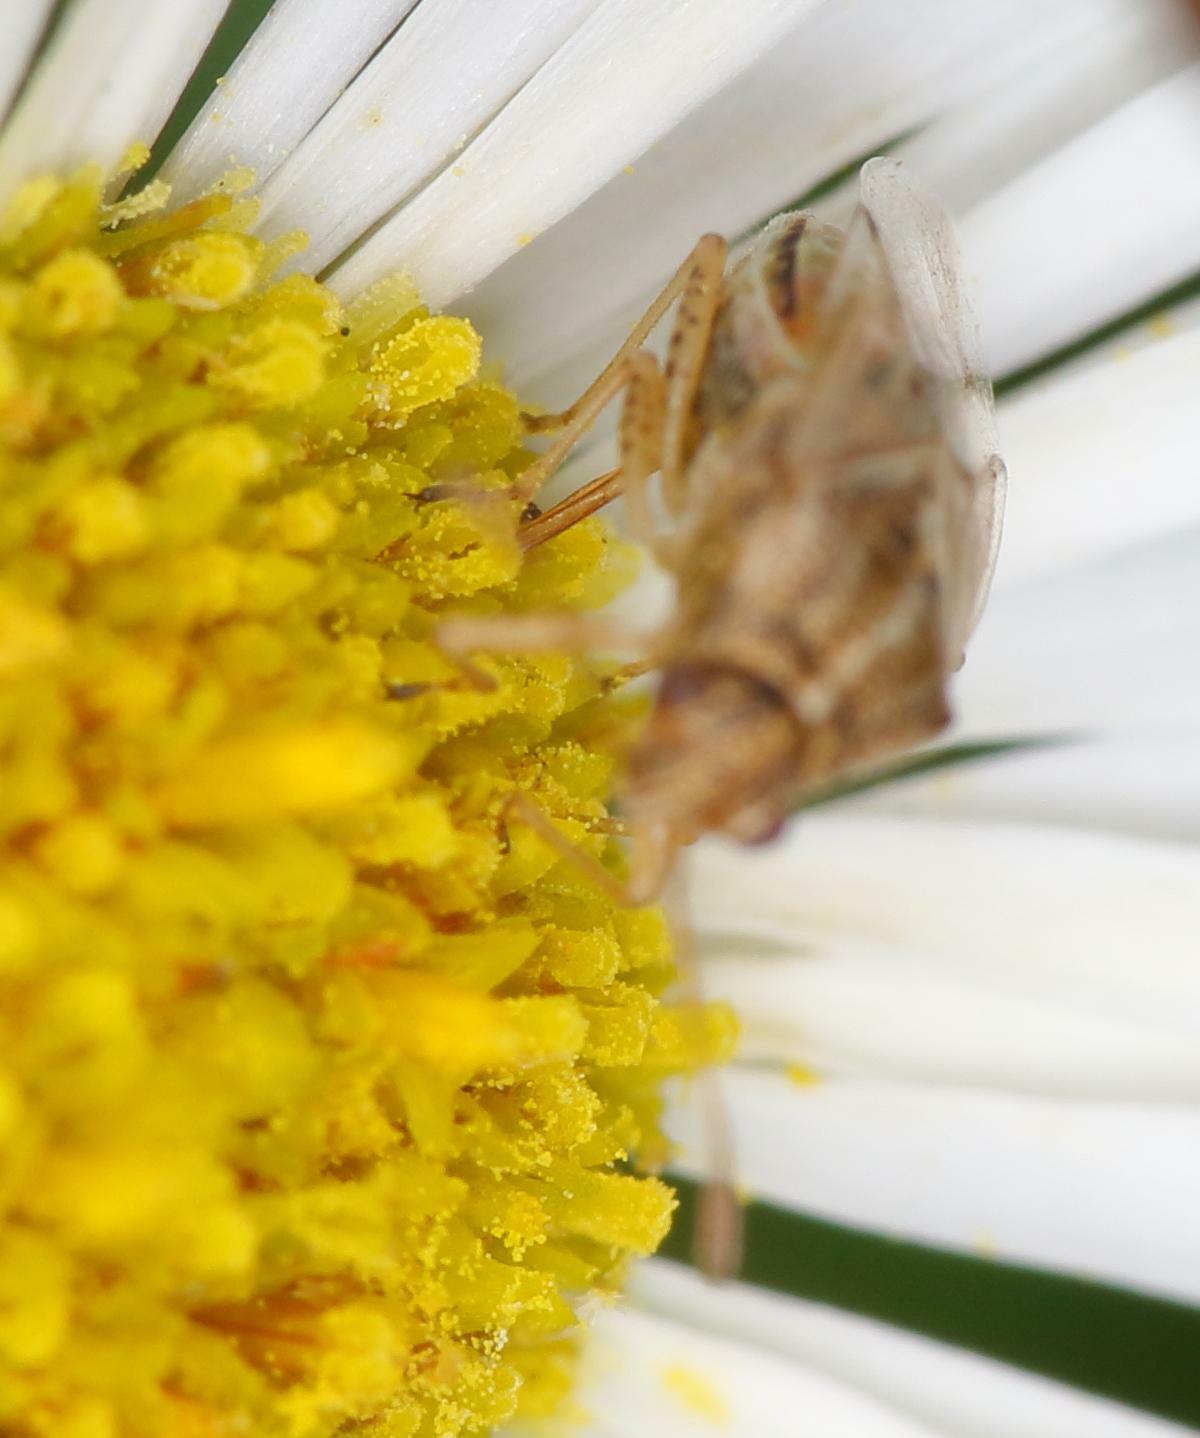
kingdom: Animalia
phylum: Arthropoda
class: Insecta
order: Hemiptera
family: Lygaeidae
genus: Nysius
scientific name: Nysius senecionis
